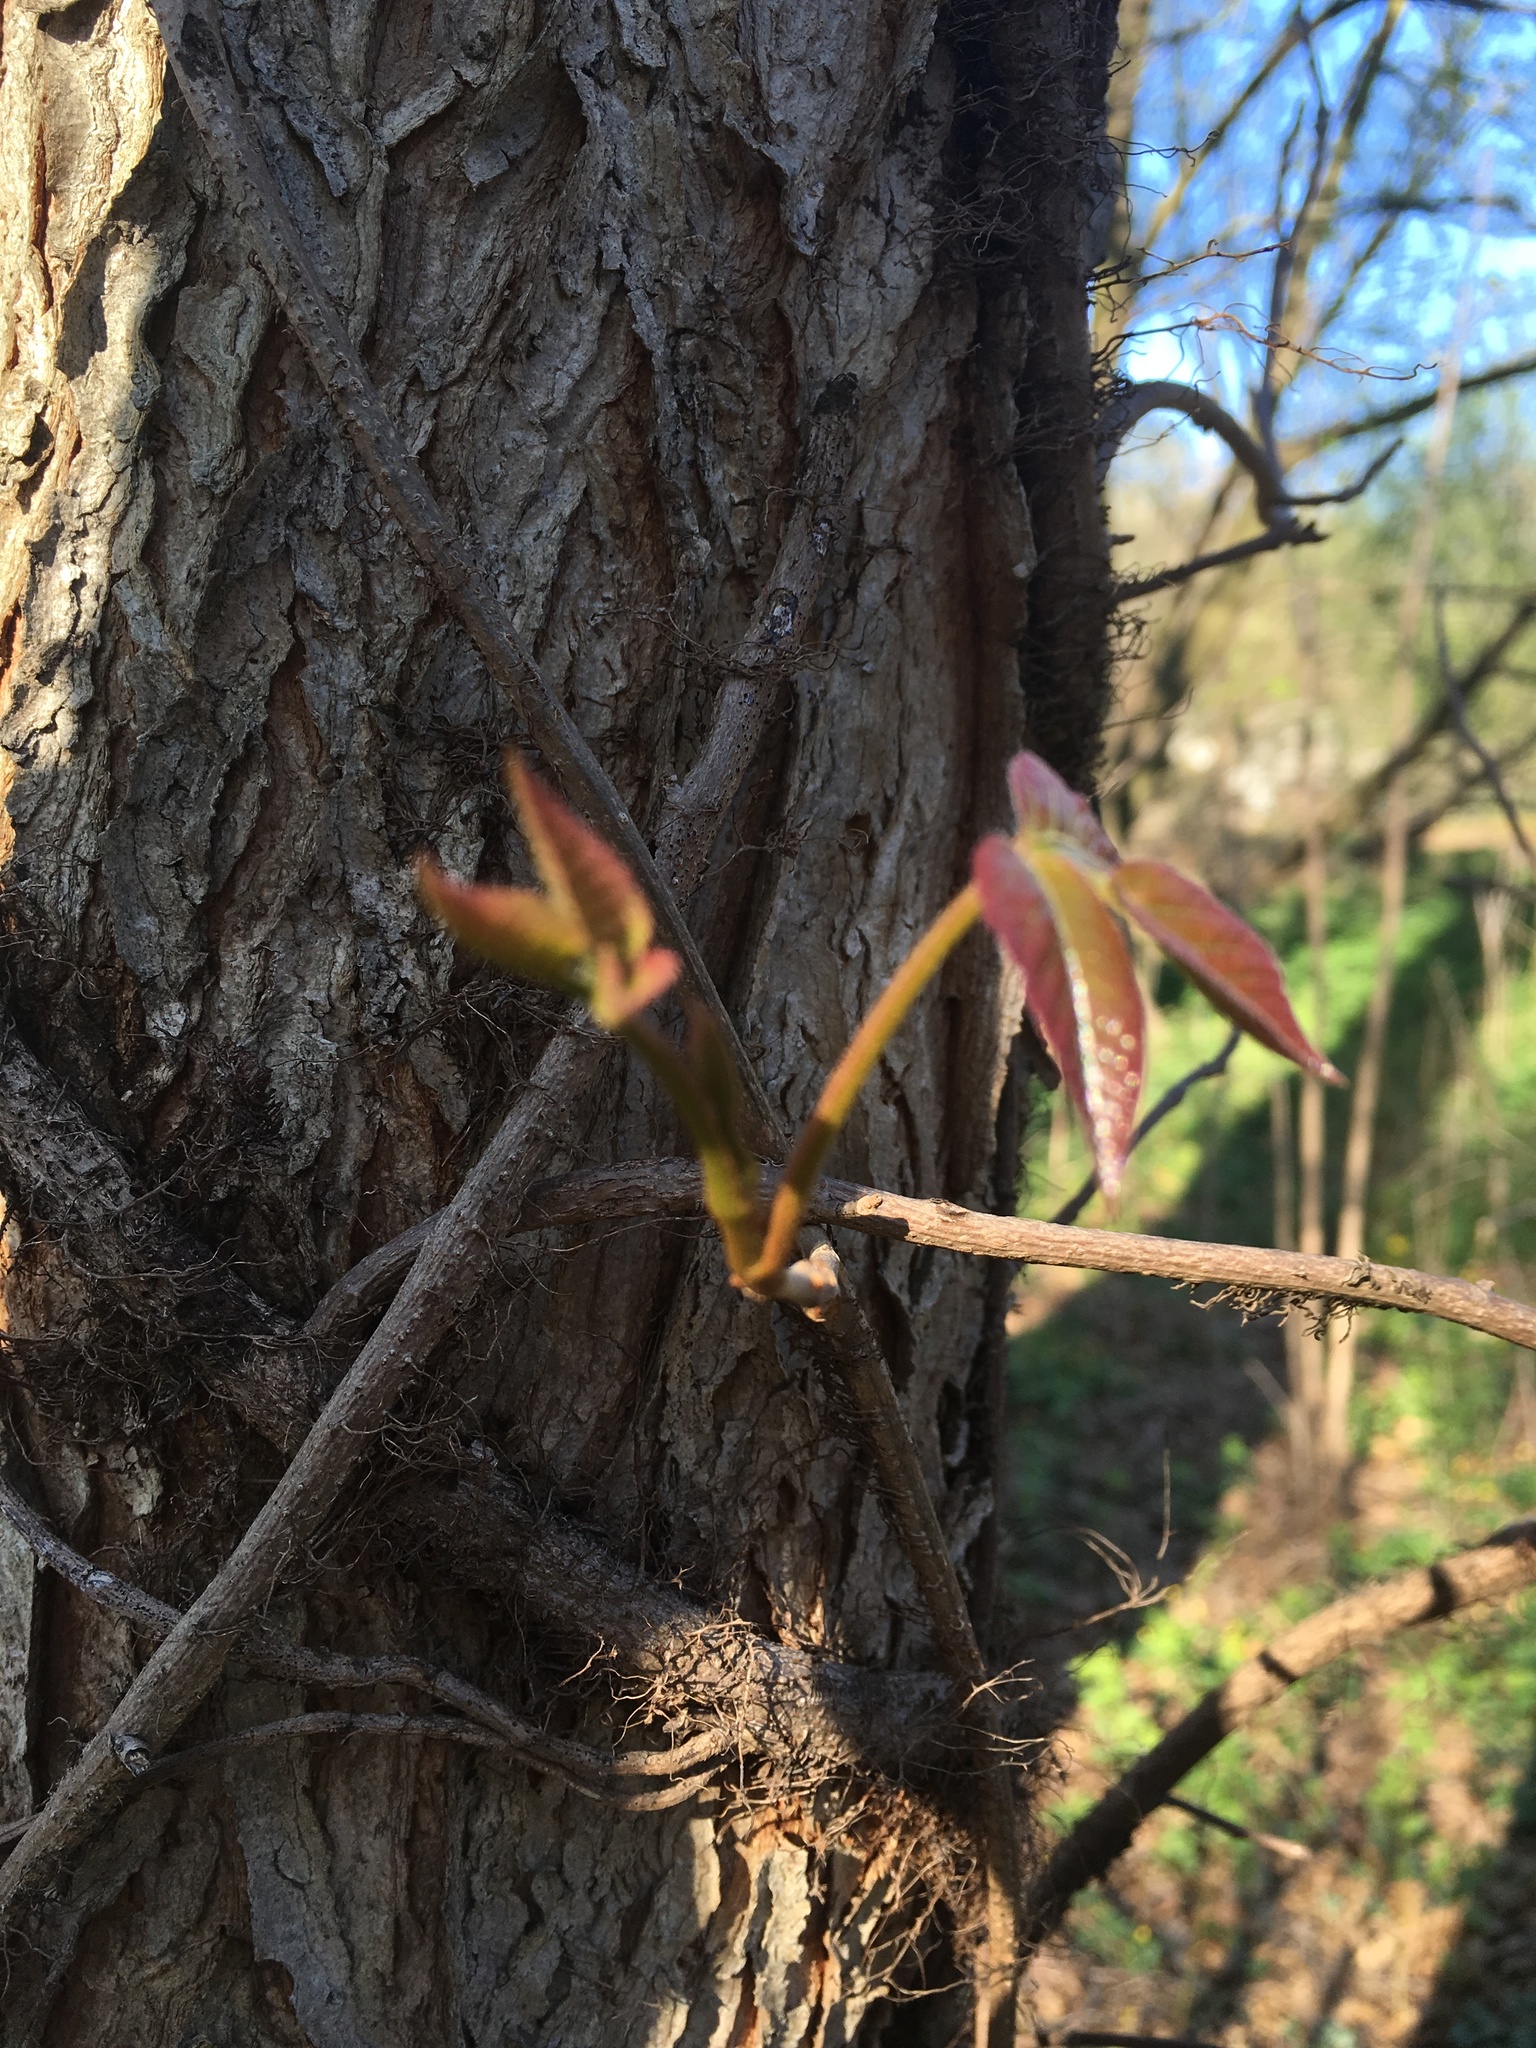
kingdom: Plantae
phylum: Tracheophyta
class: Magnoliopsida
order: Sapindales
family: Anacardiaceae
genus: Toxicodendron
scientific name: Toxicodendron radicans
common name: Poison ivy
